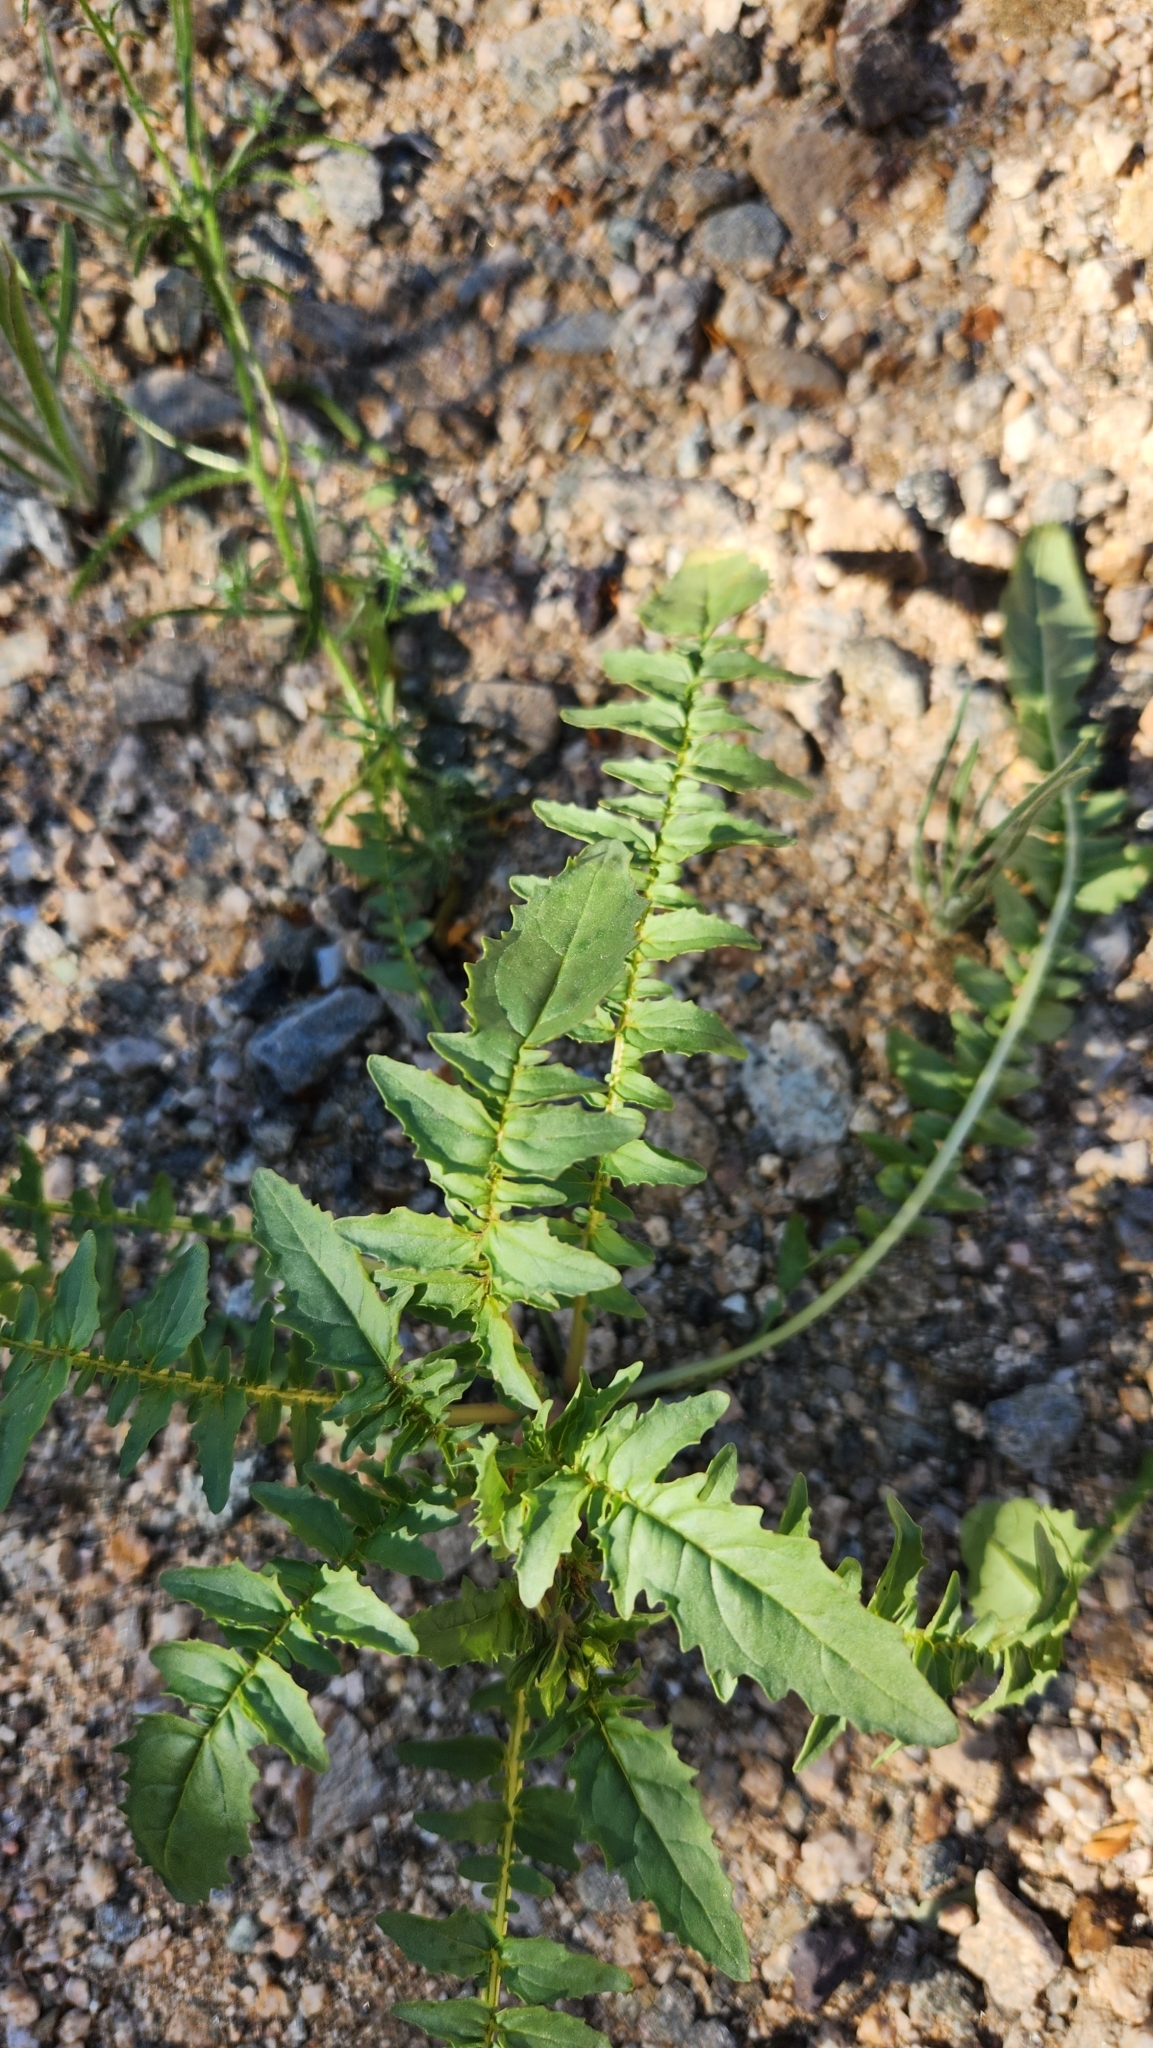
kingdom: Plantae
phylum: Tracheophyta
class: Magnoliopsida
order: Myrtales
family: Onagraceae
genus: Chylismia
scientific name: Chylismia claviformis
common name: Browneyes
